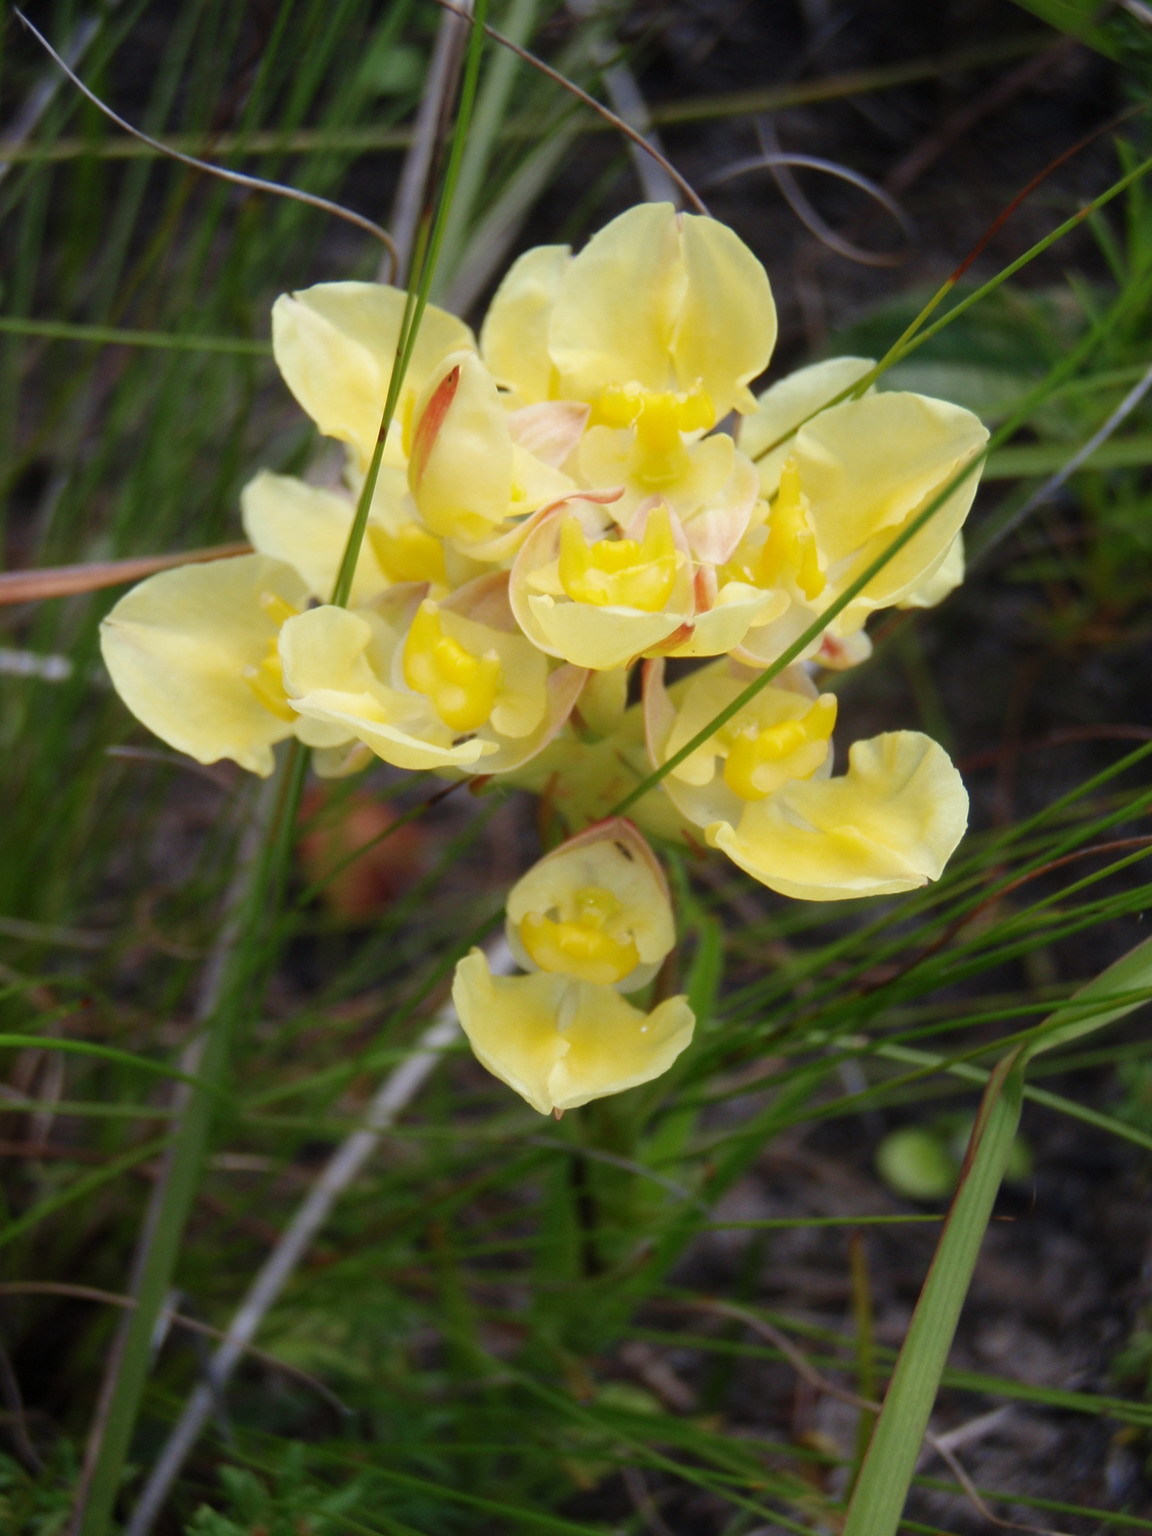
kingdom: Plantae
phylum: Tracheophyta
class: Liliopsida
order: Asparagales
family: Orchidaceae
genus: Ceratandra
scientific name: Ceratandra grandiflora
